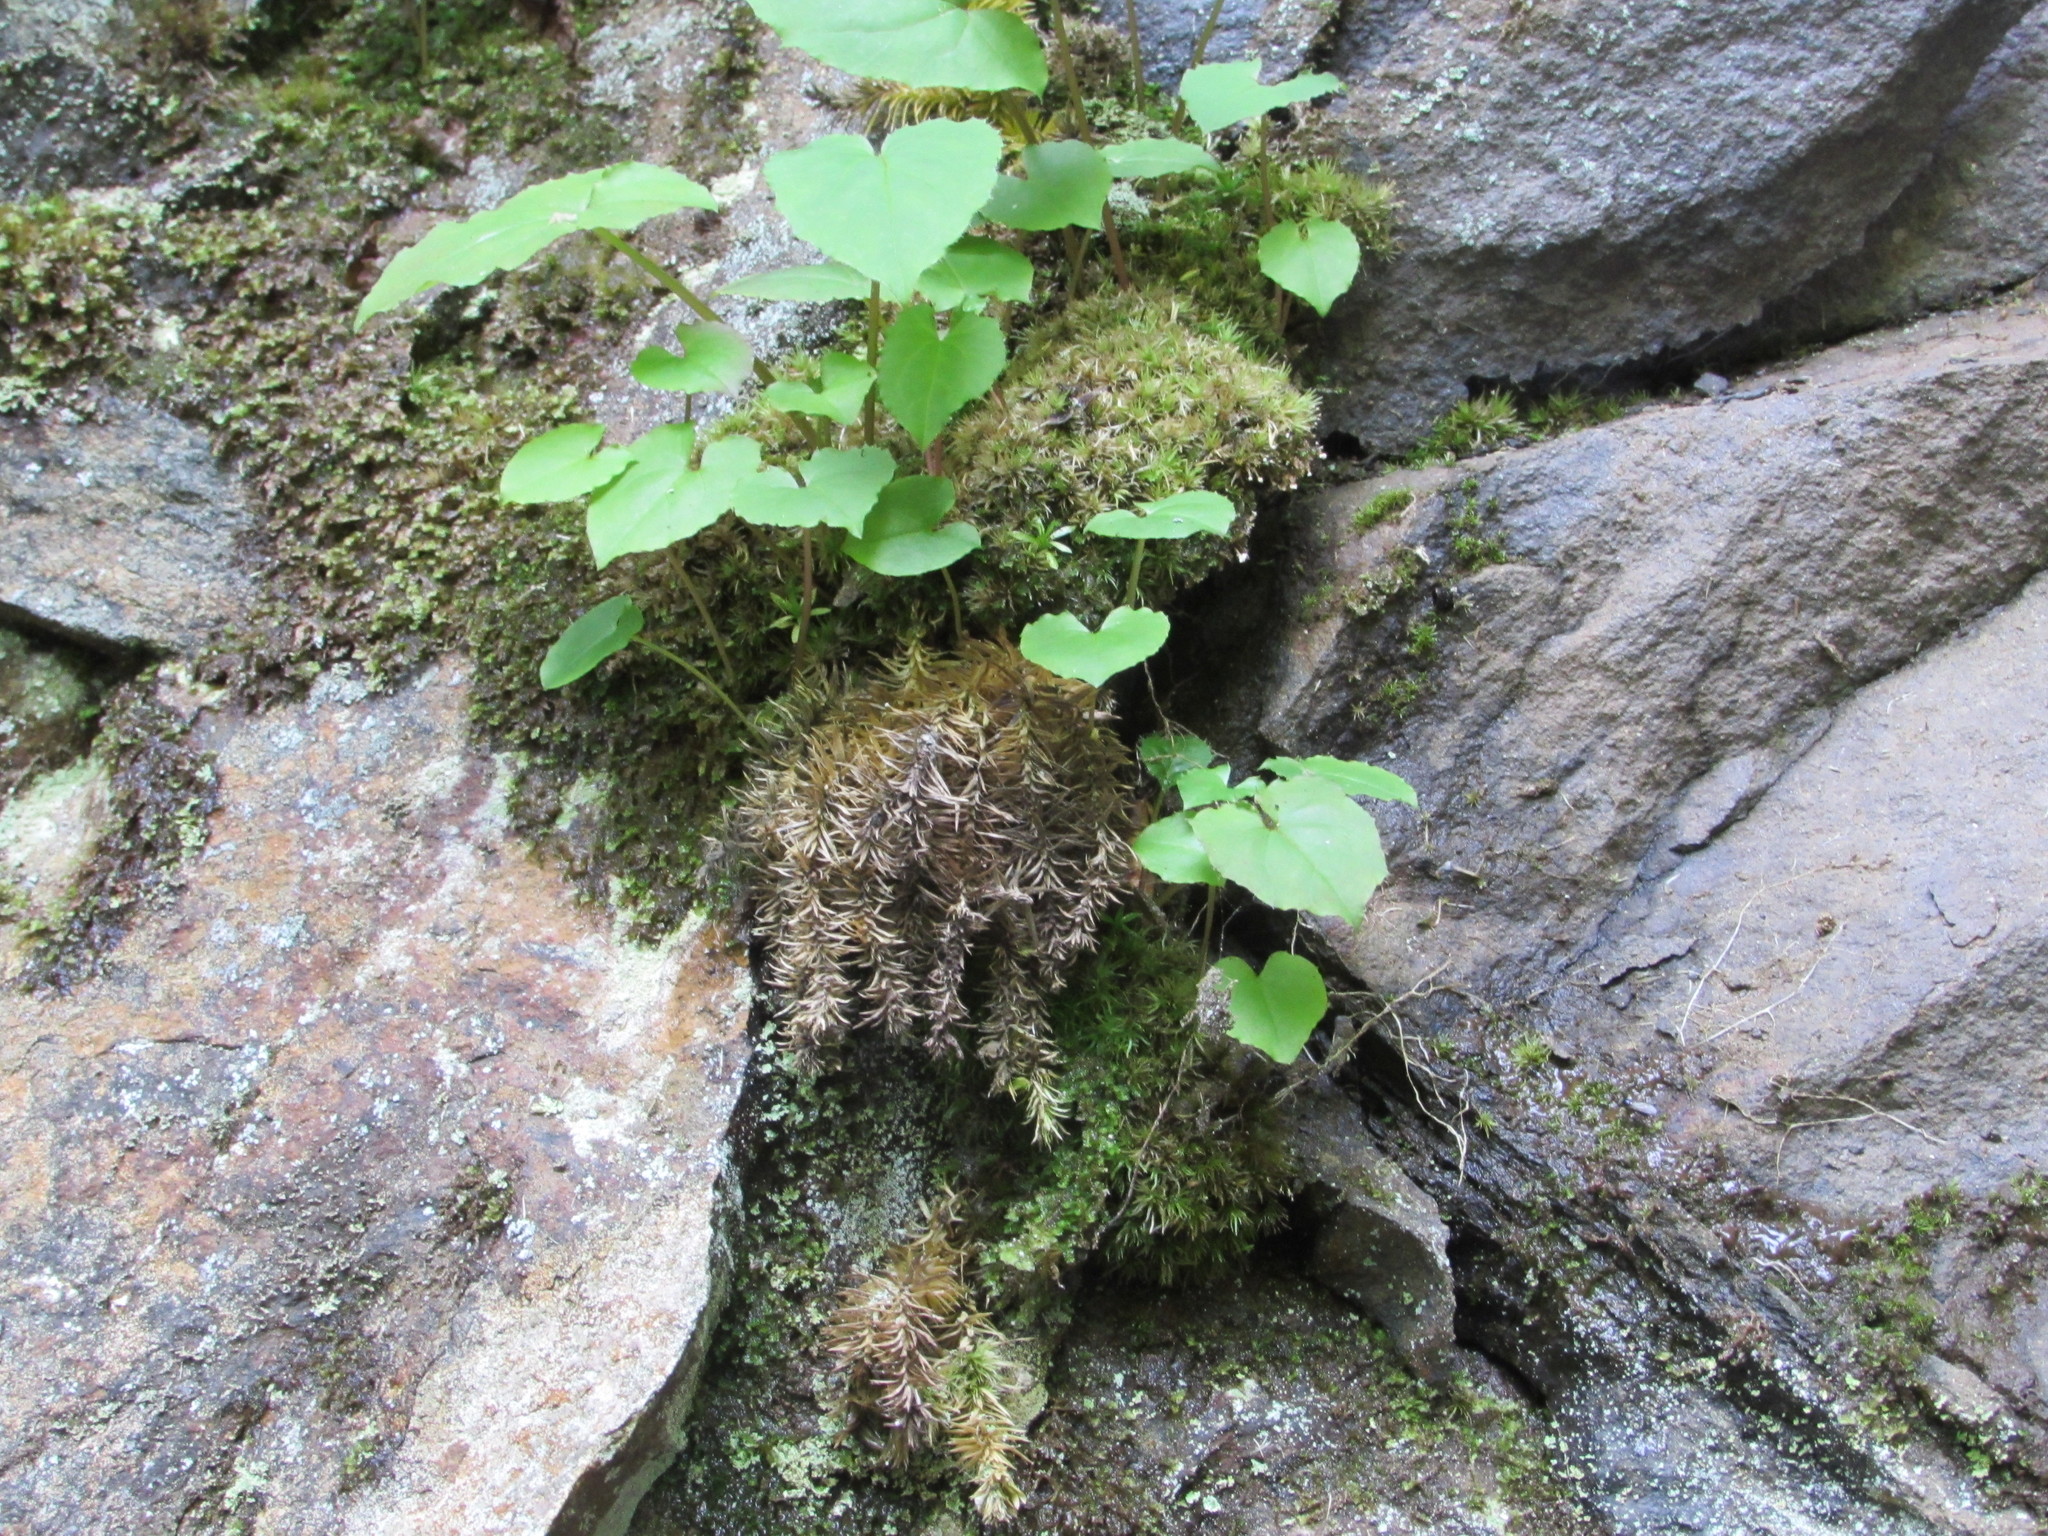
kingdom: Plantae
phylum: Tracheophyta
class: Lycopodiopsida
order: Lycopodiales
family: Lycopodiaceae
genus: Huperzia
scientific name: Huperzia porophila
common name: Rock clubmoss
